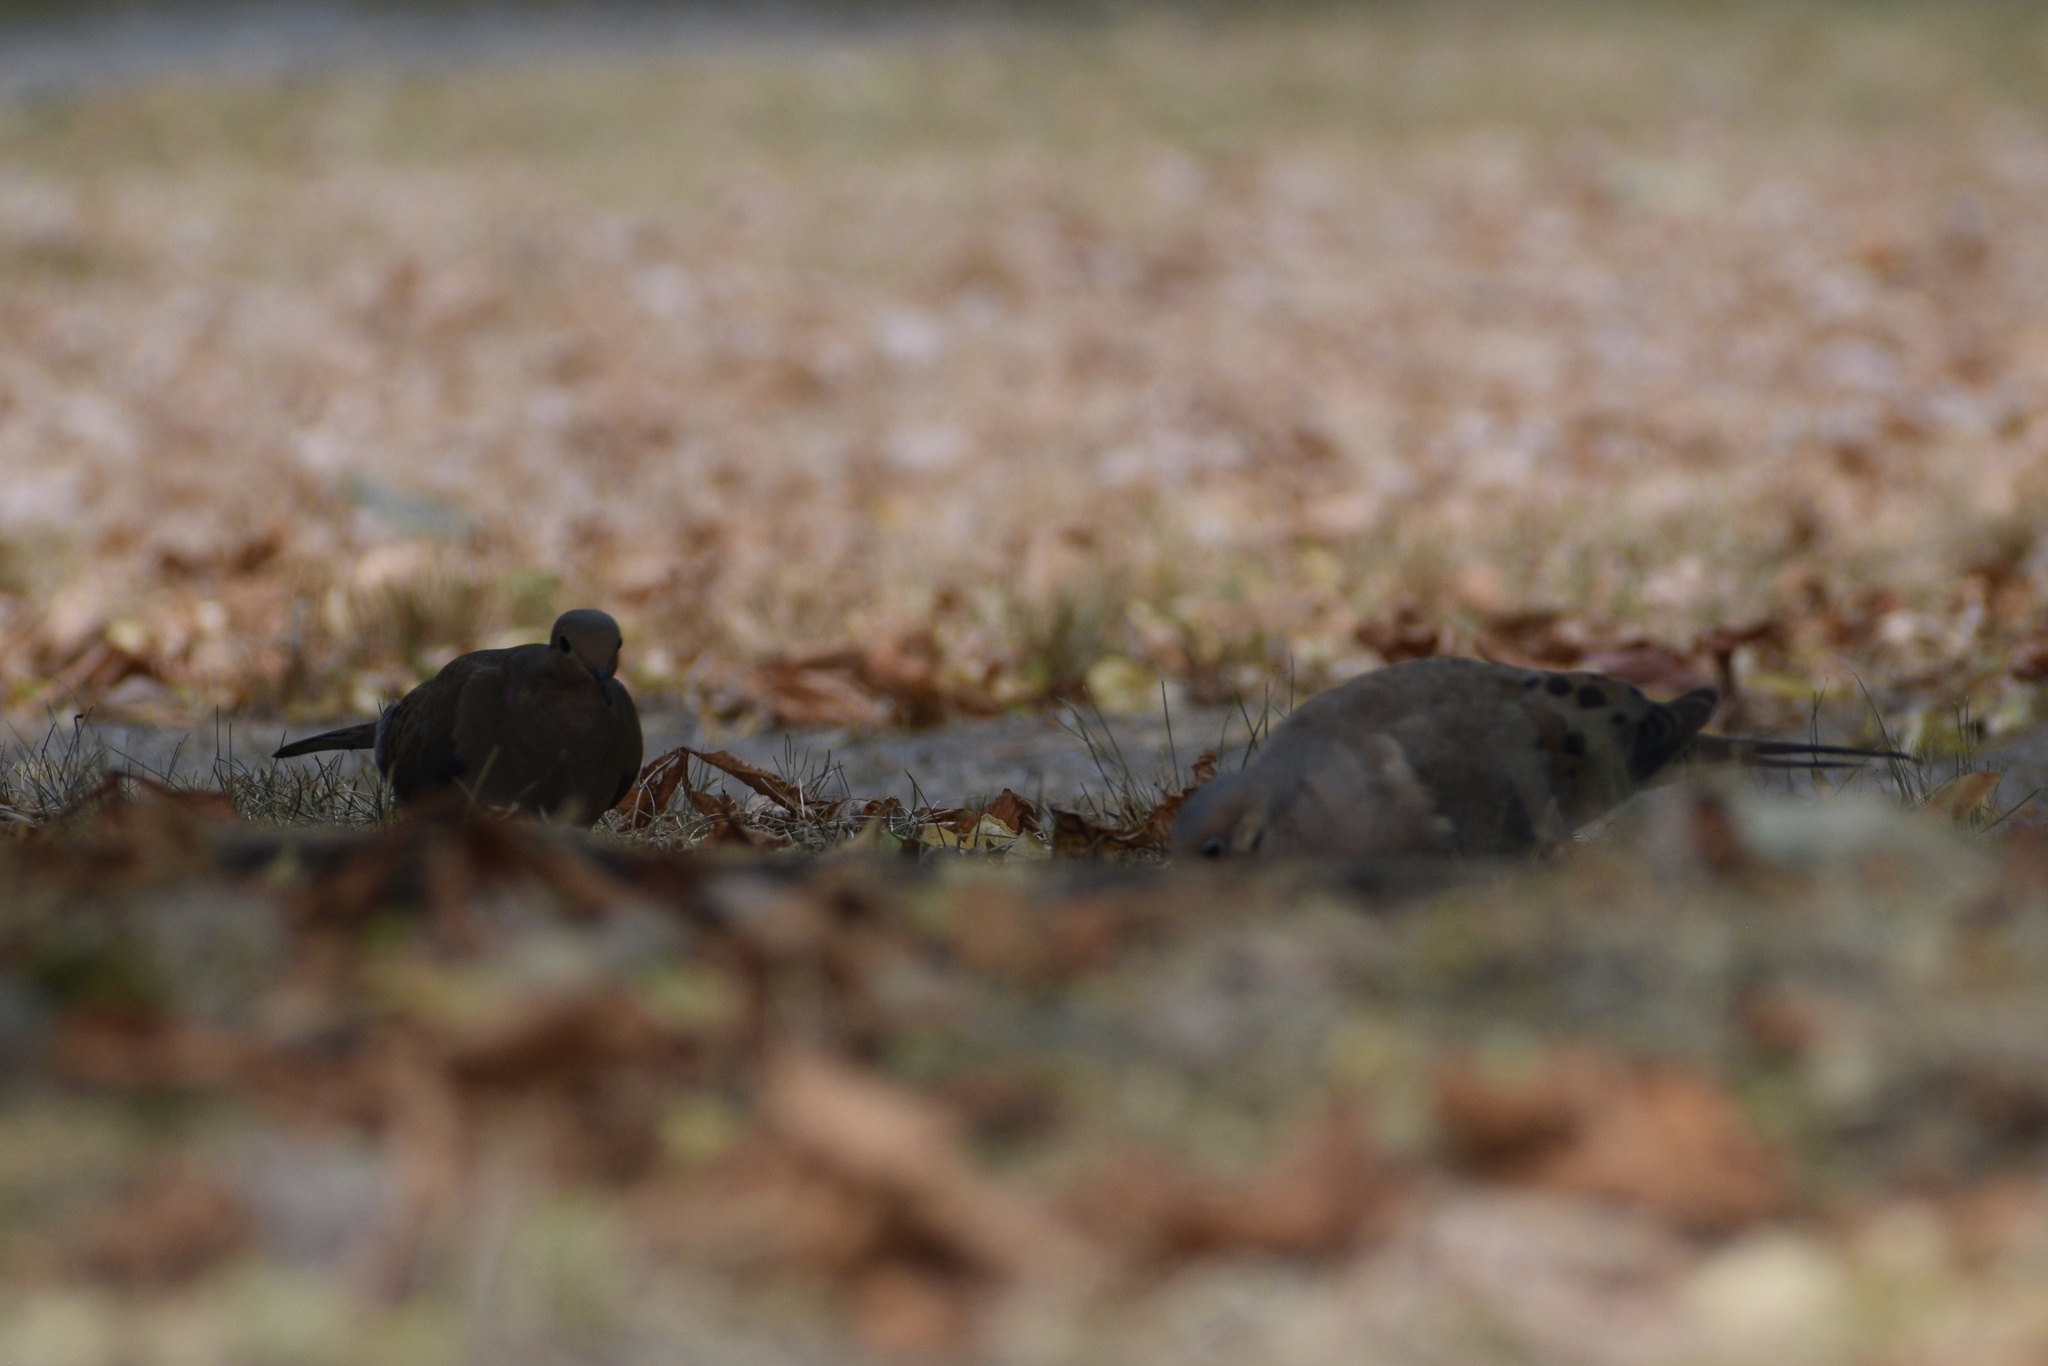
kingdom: Animalia
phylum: Chordata
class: Aves
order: Columbiformes
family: Columbidae
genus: Zenaida
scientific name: Zenaida macroura
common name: Mourning dove
